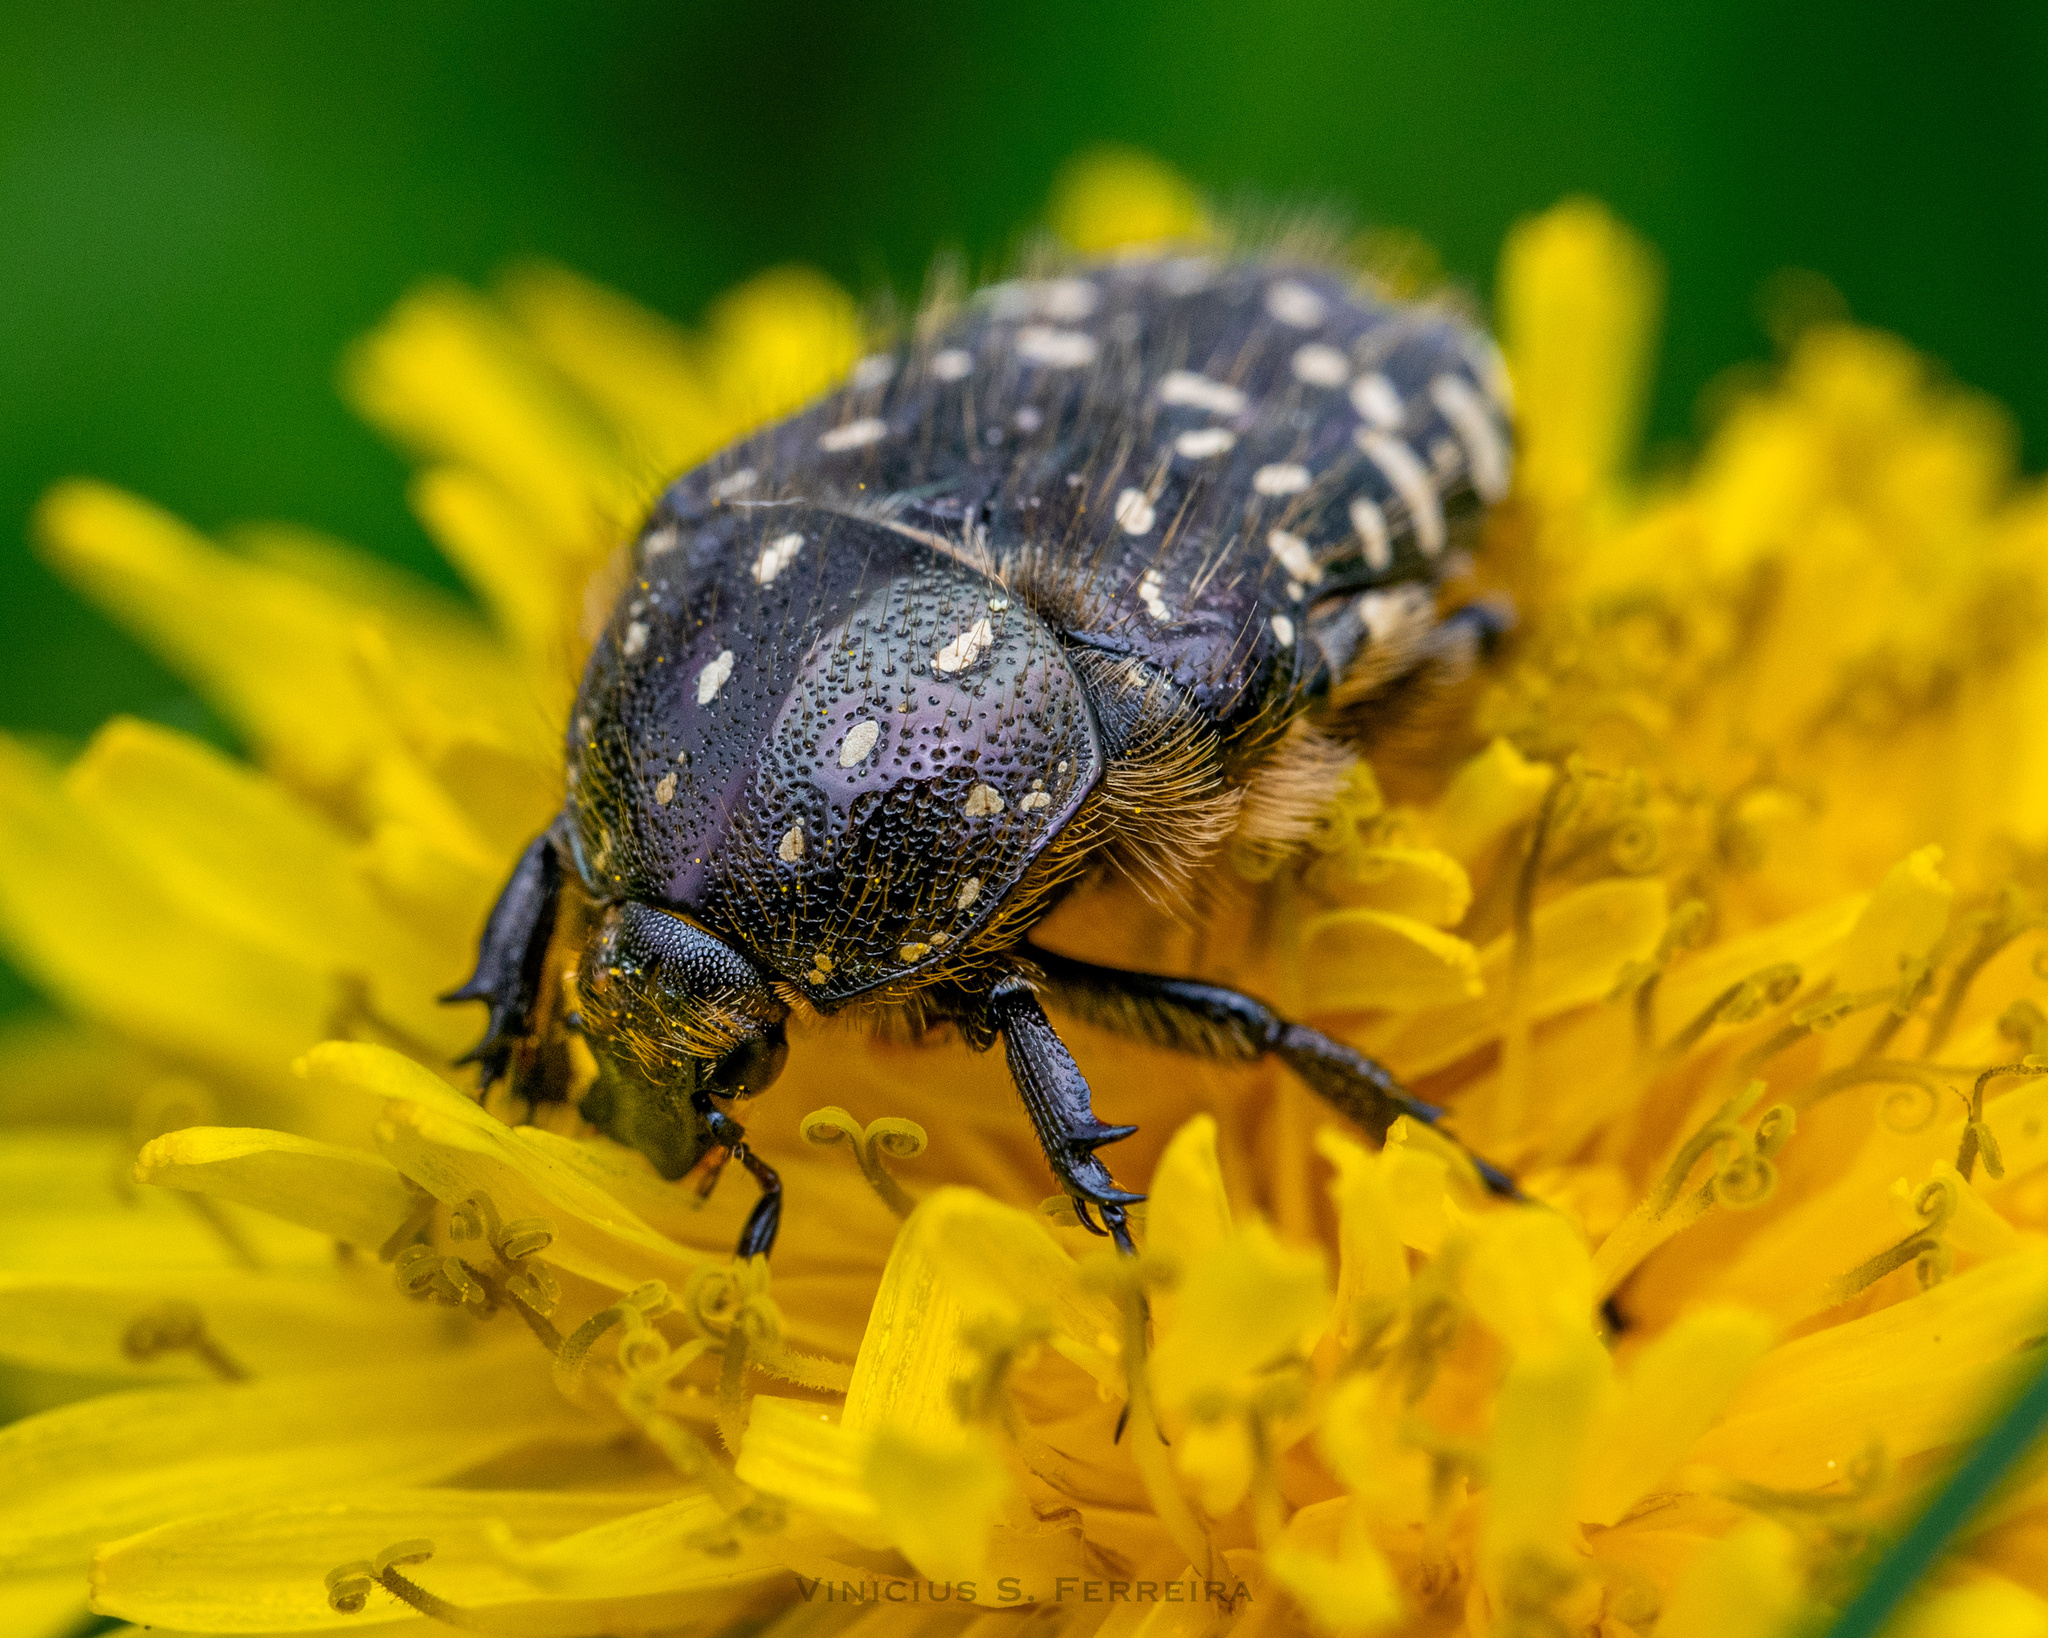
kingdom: Animalia
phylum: Arthropoda
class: Insecta
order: Coleoptera
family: Scarabaeidae
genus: Oxythyrea
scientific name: Oxythyrea funesta
